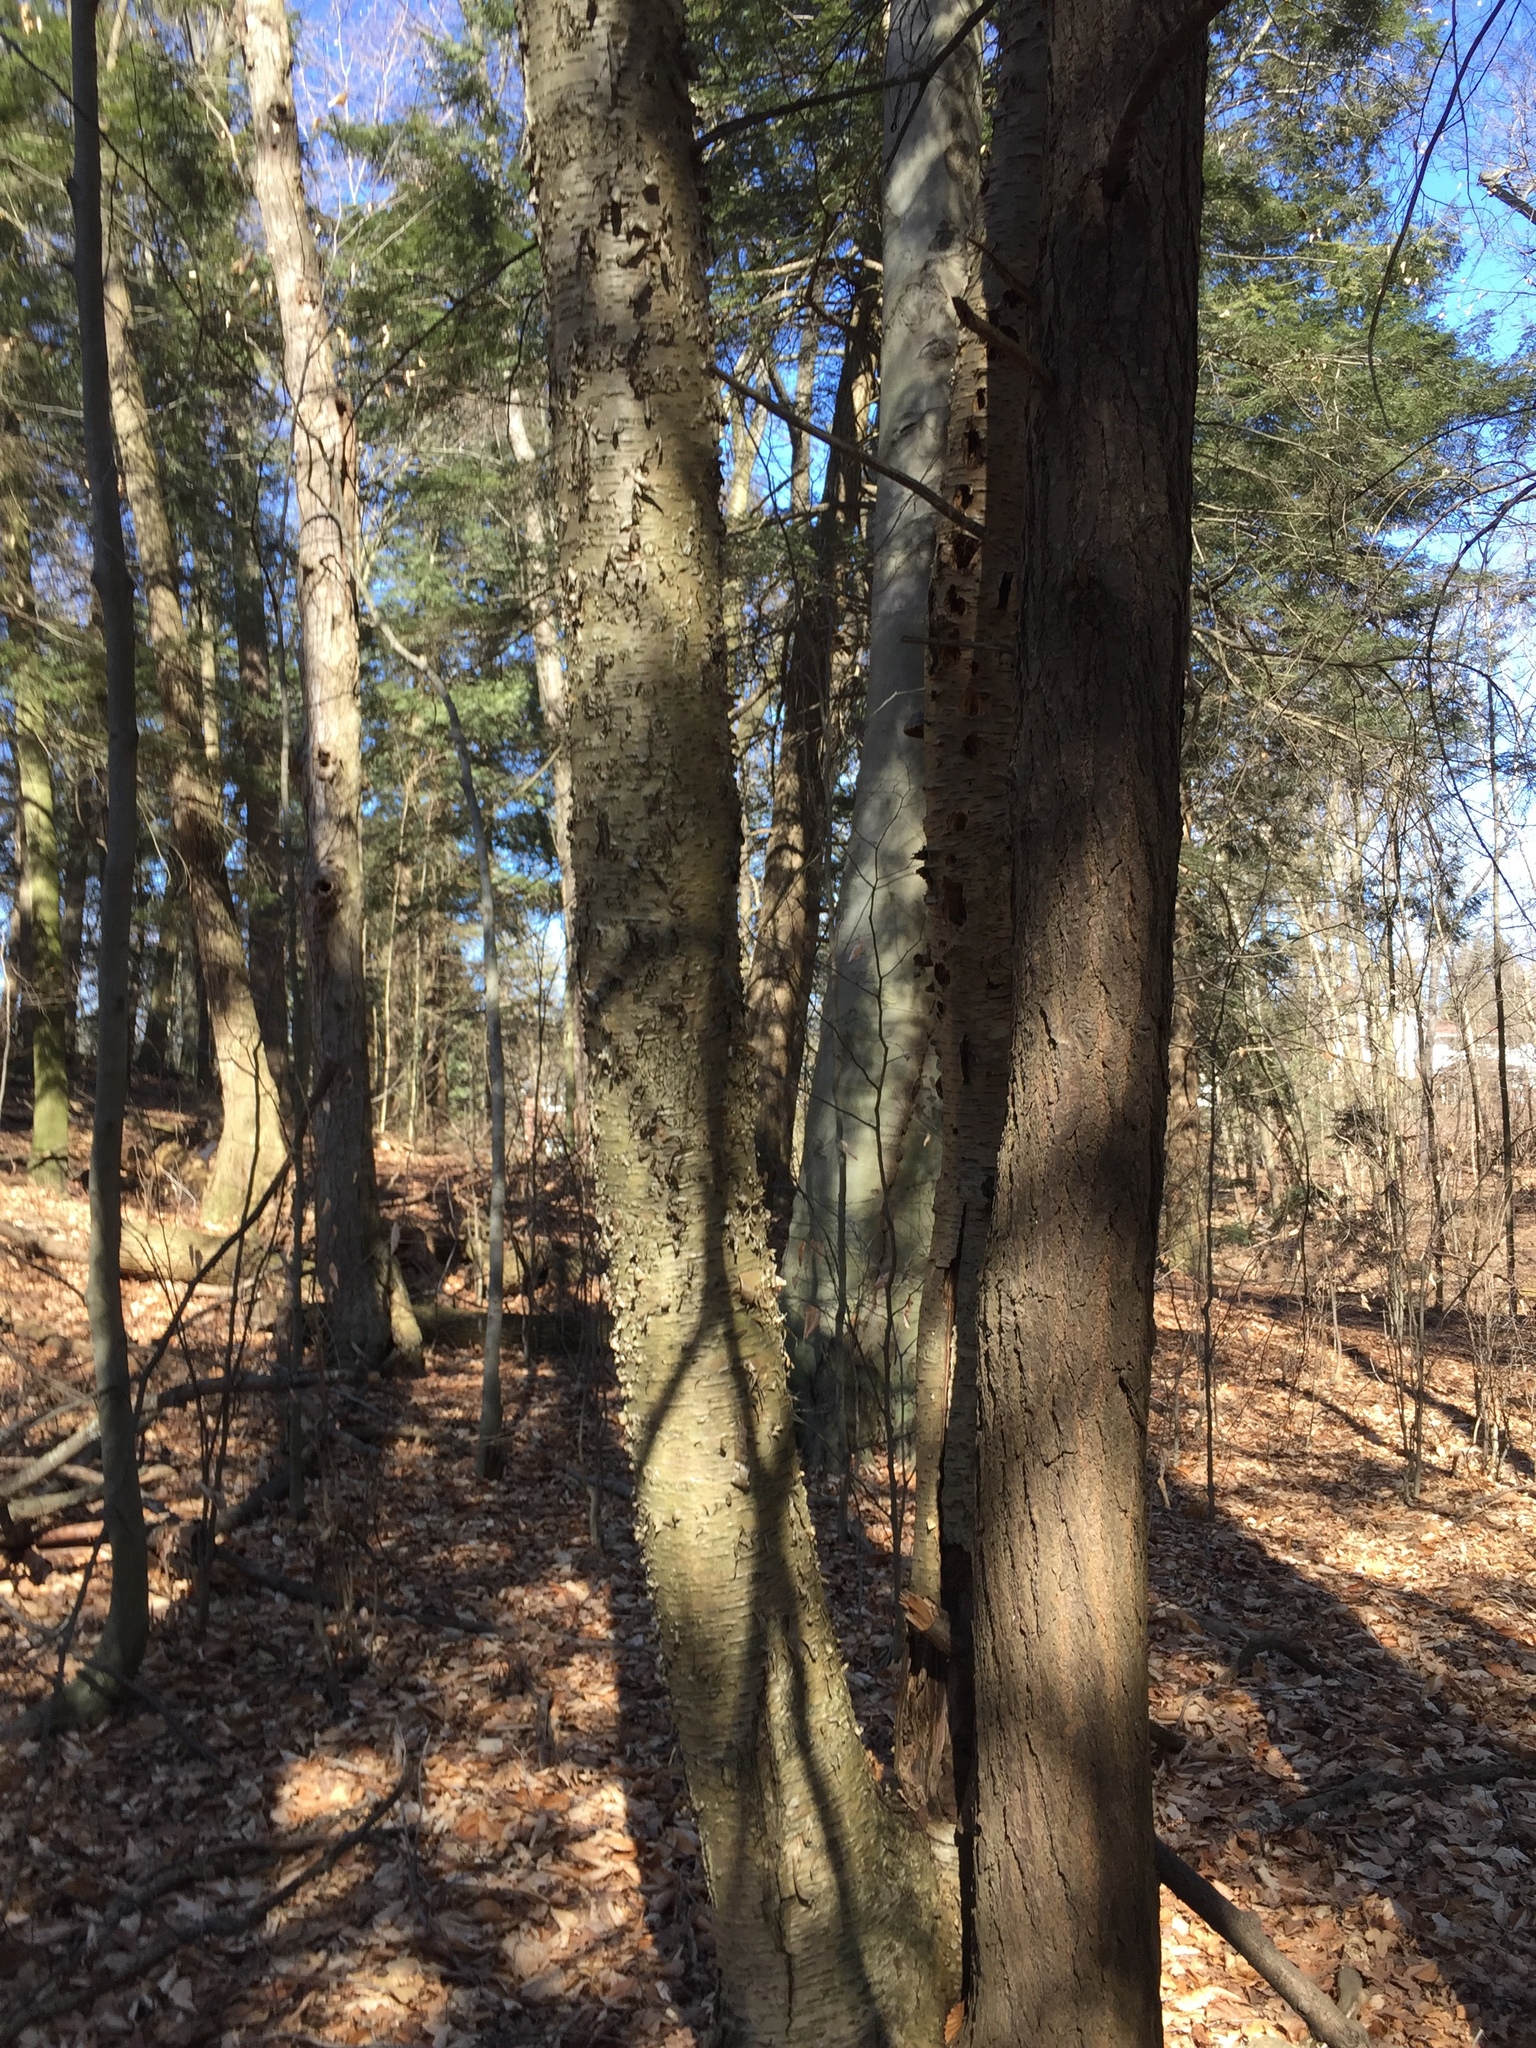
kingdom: Plantae
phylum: Tracheophyta
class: Magnoliopsida
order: Fagales
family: Betulaceae
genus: Betula
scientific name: Betula alleghaniensis
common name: Yellow birch
